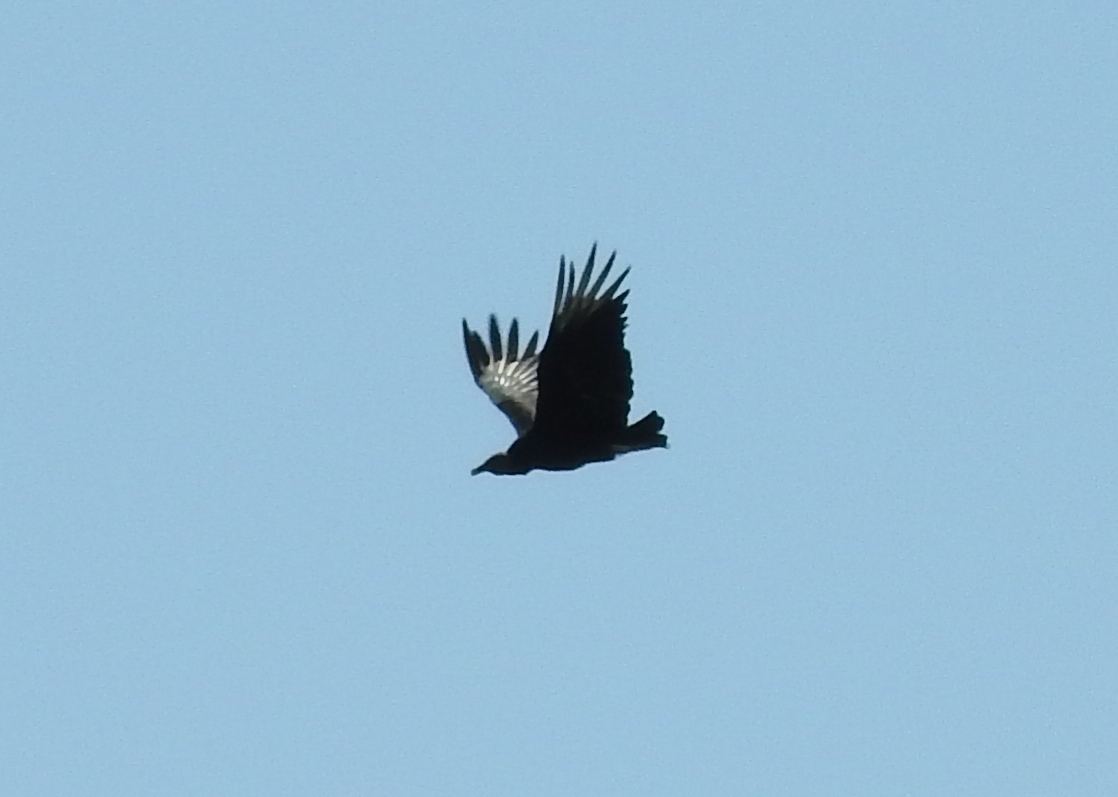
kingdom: Animalia
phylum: Chordata
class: Aves
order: Accipitriformes
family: Cathartidae
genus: Coragyps
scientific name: Coragyps atratus
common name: Black vulture
